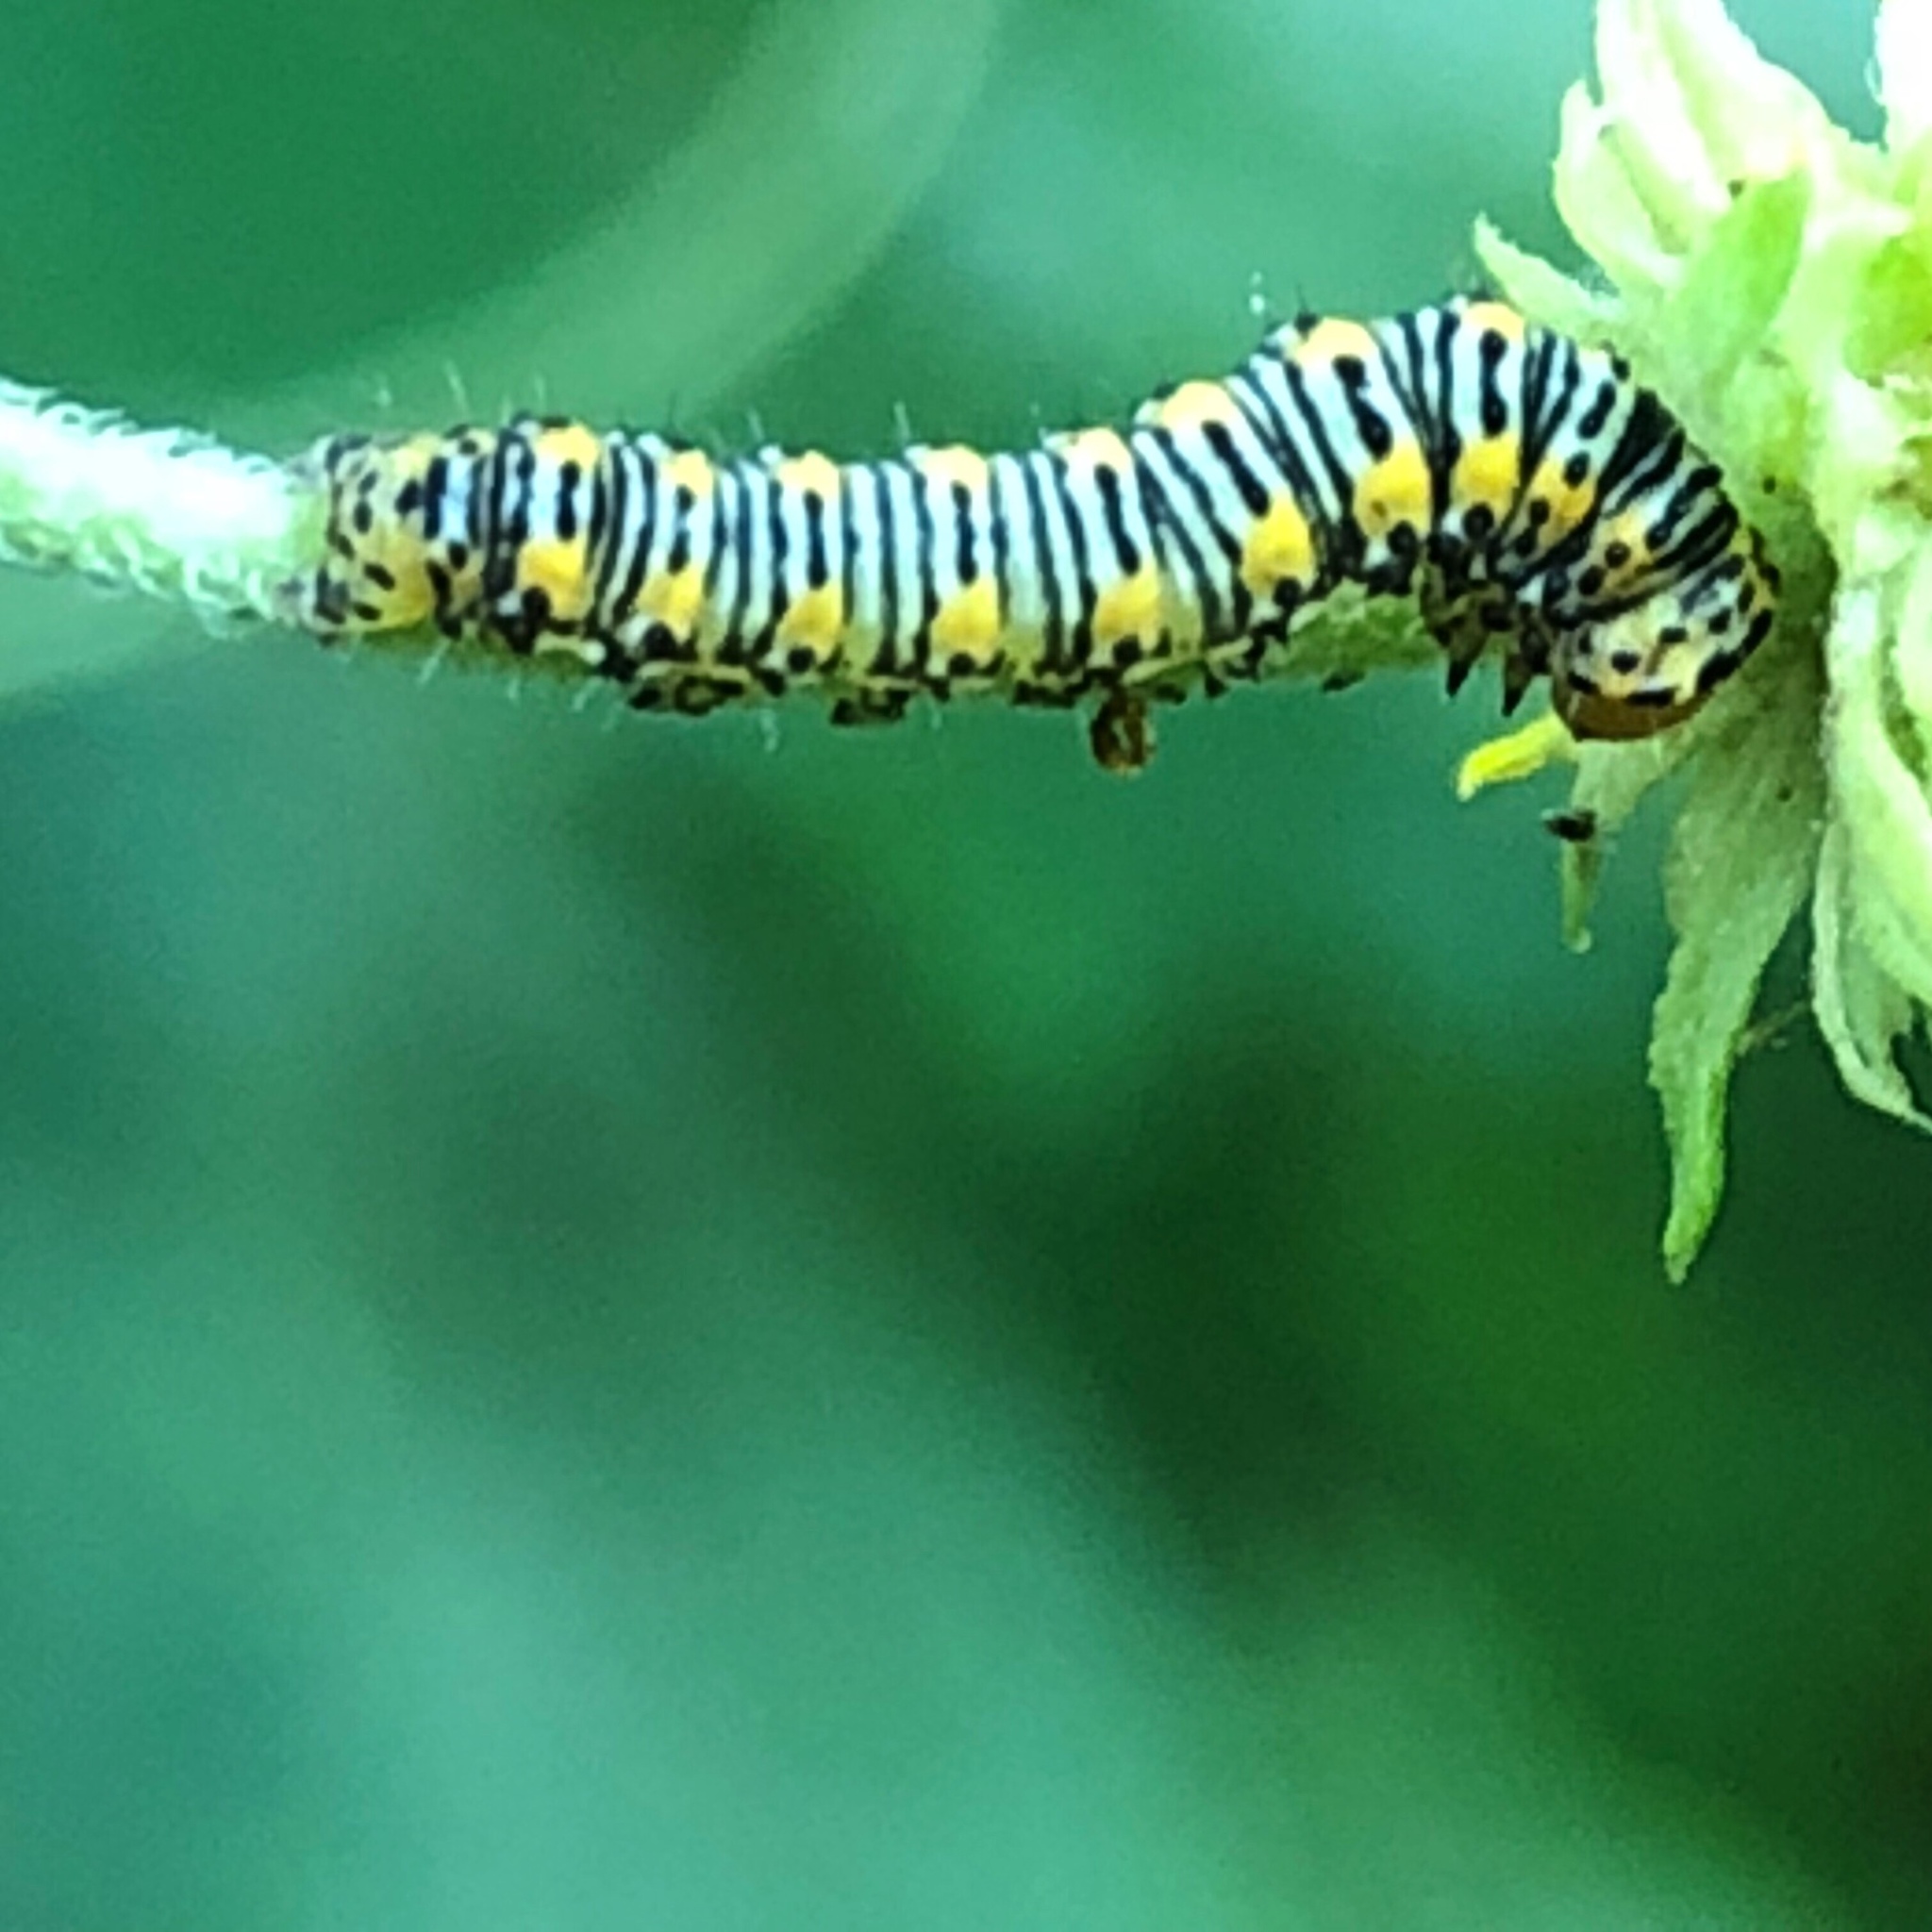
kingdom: Animalia
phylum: Arthropoda
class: Insecta
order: Lepidoptera
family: Noctuidae
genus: Basilodes
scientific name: Basilodes pepita
